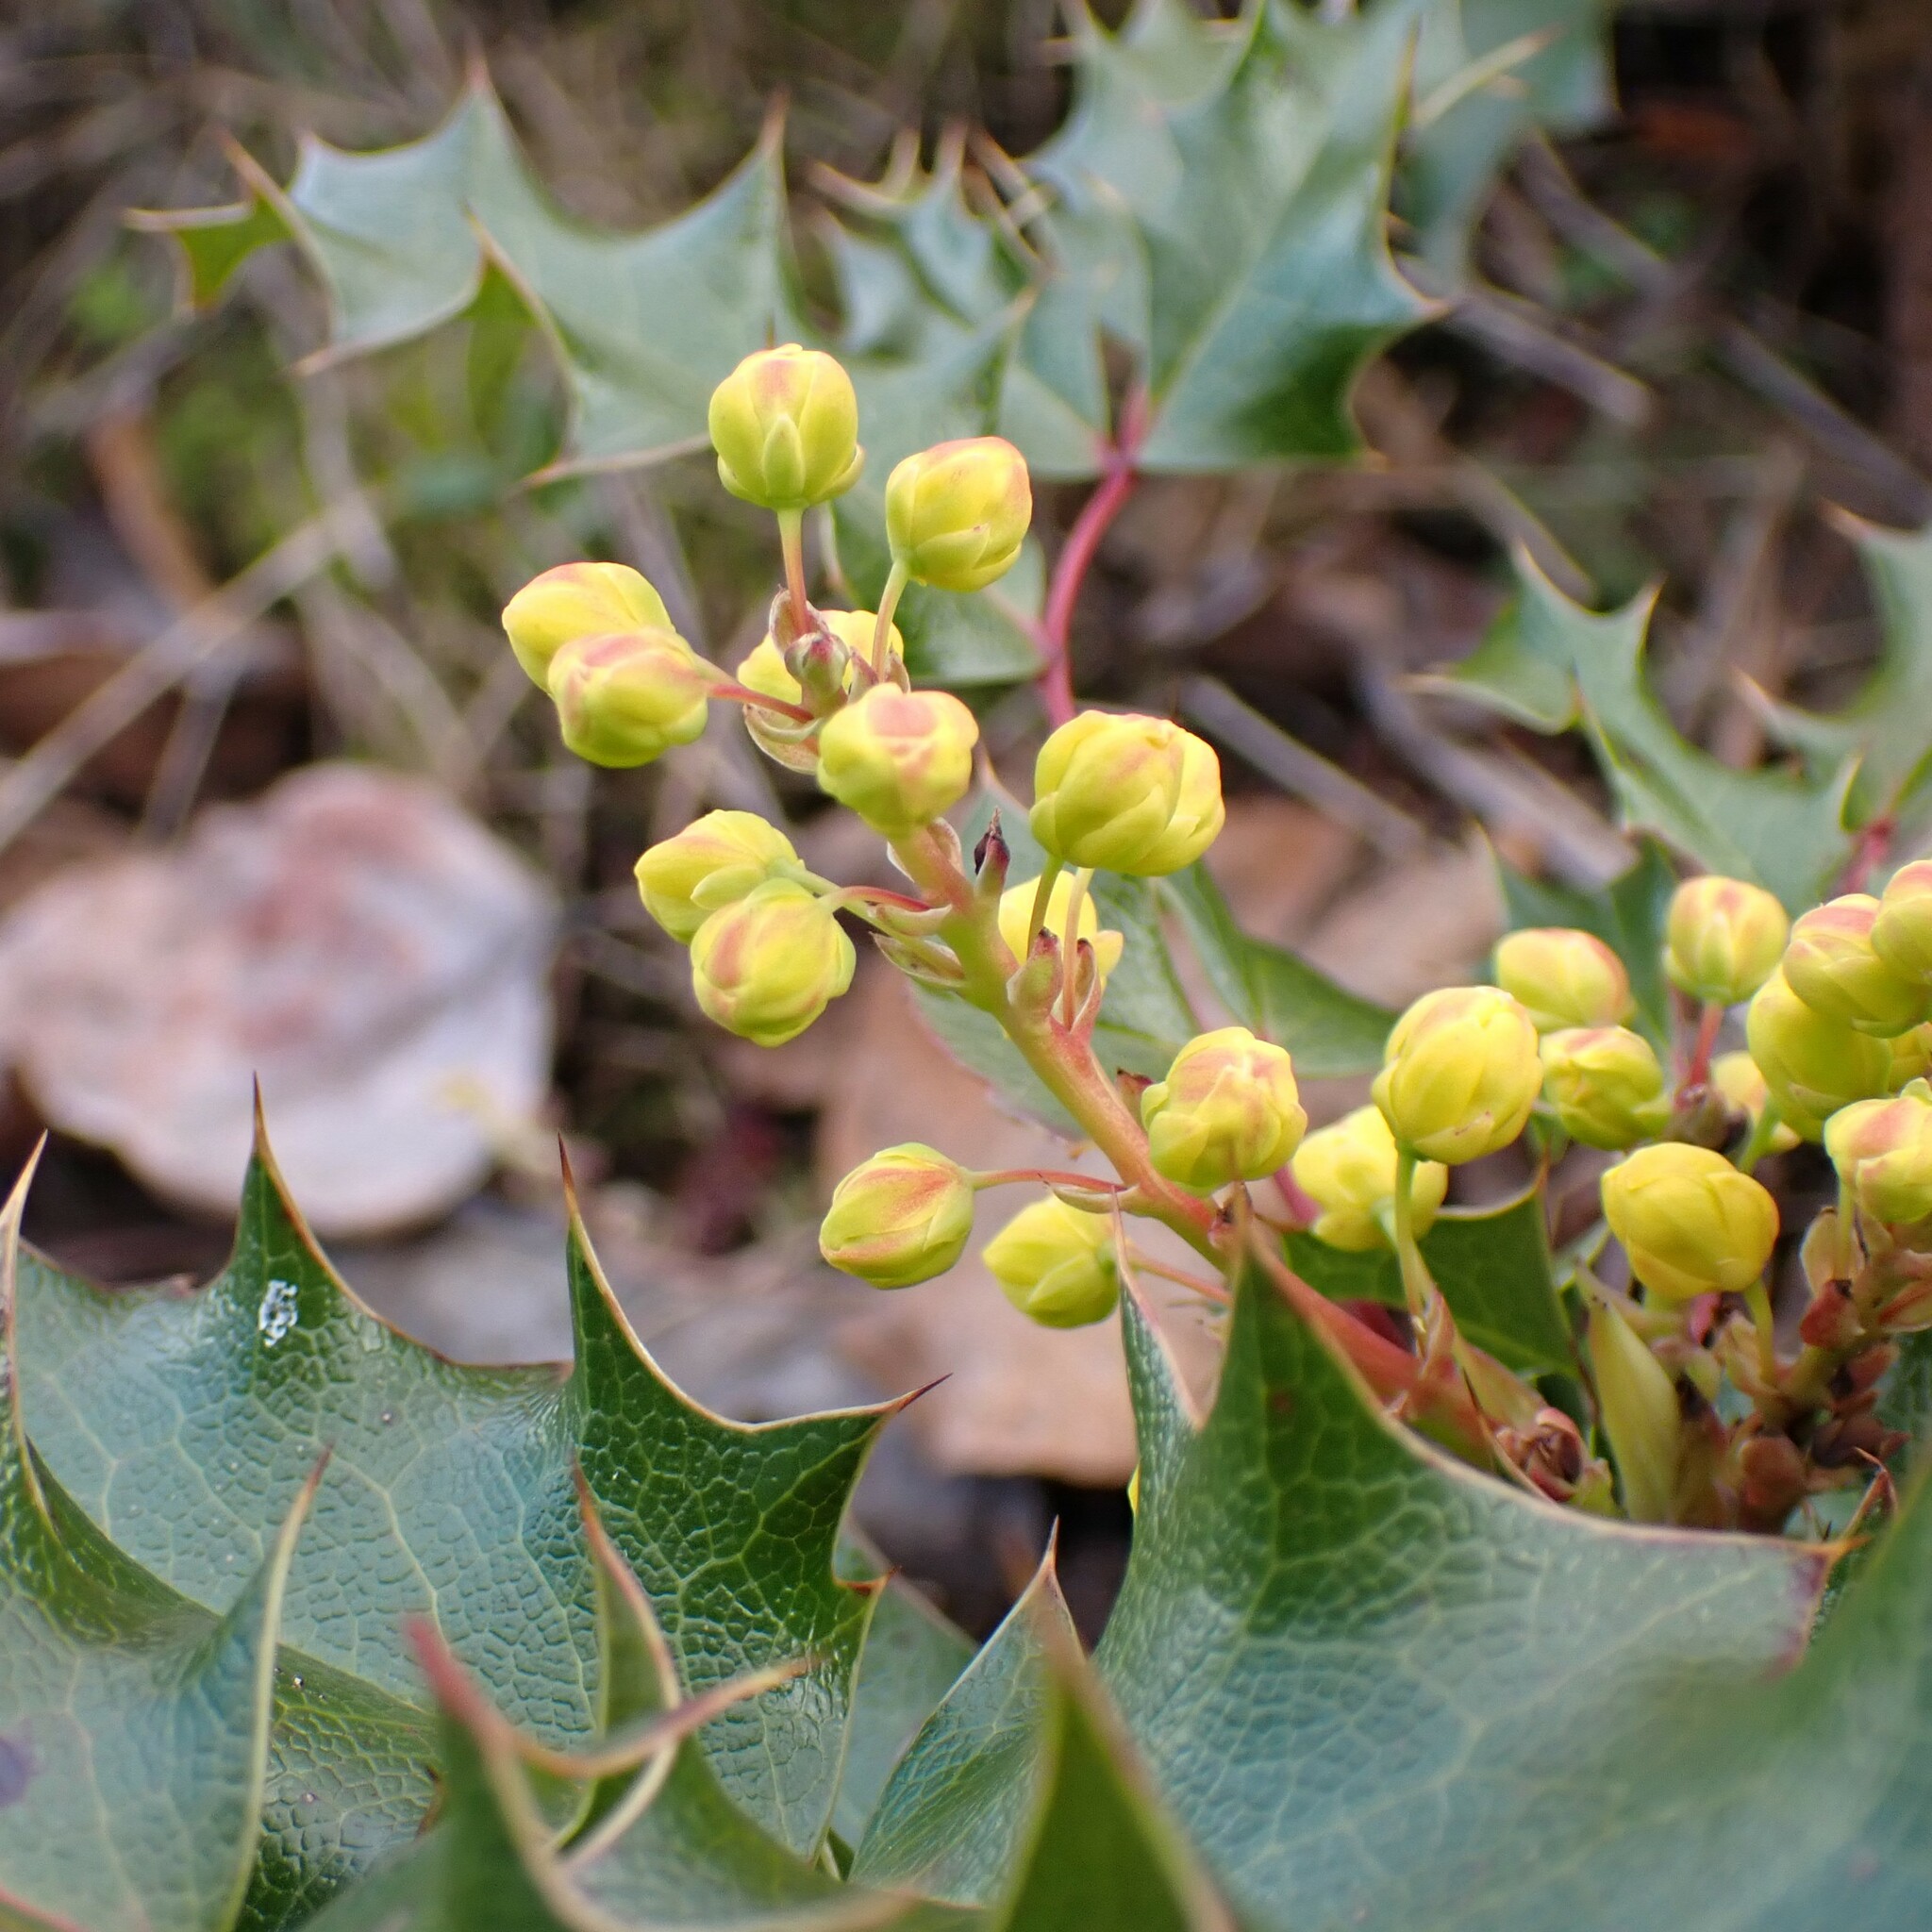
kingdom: Plantae
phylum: Tracheophyta
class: Magnoliopsida
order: Ranunculales
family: Berberidaceae
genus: Mahonia
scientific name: Mahonia aquifolium
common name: Oregon-grape
